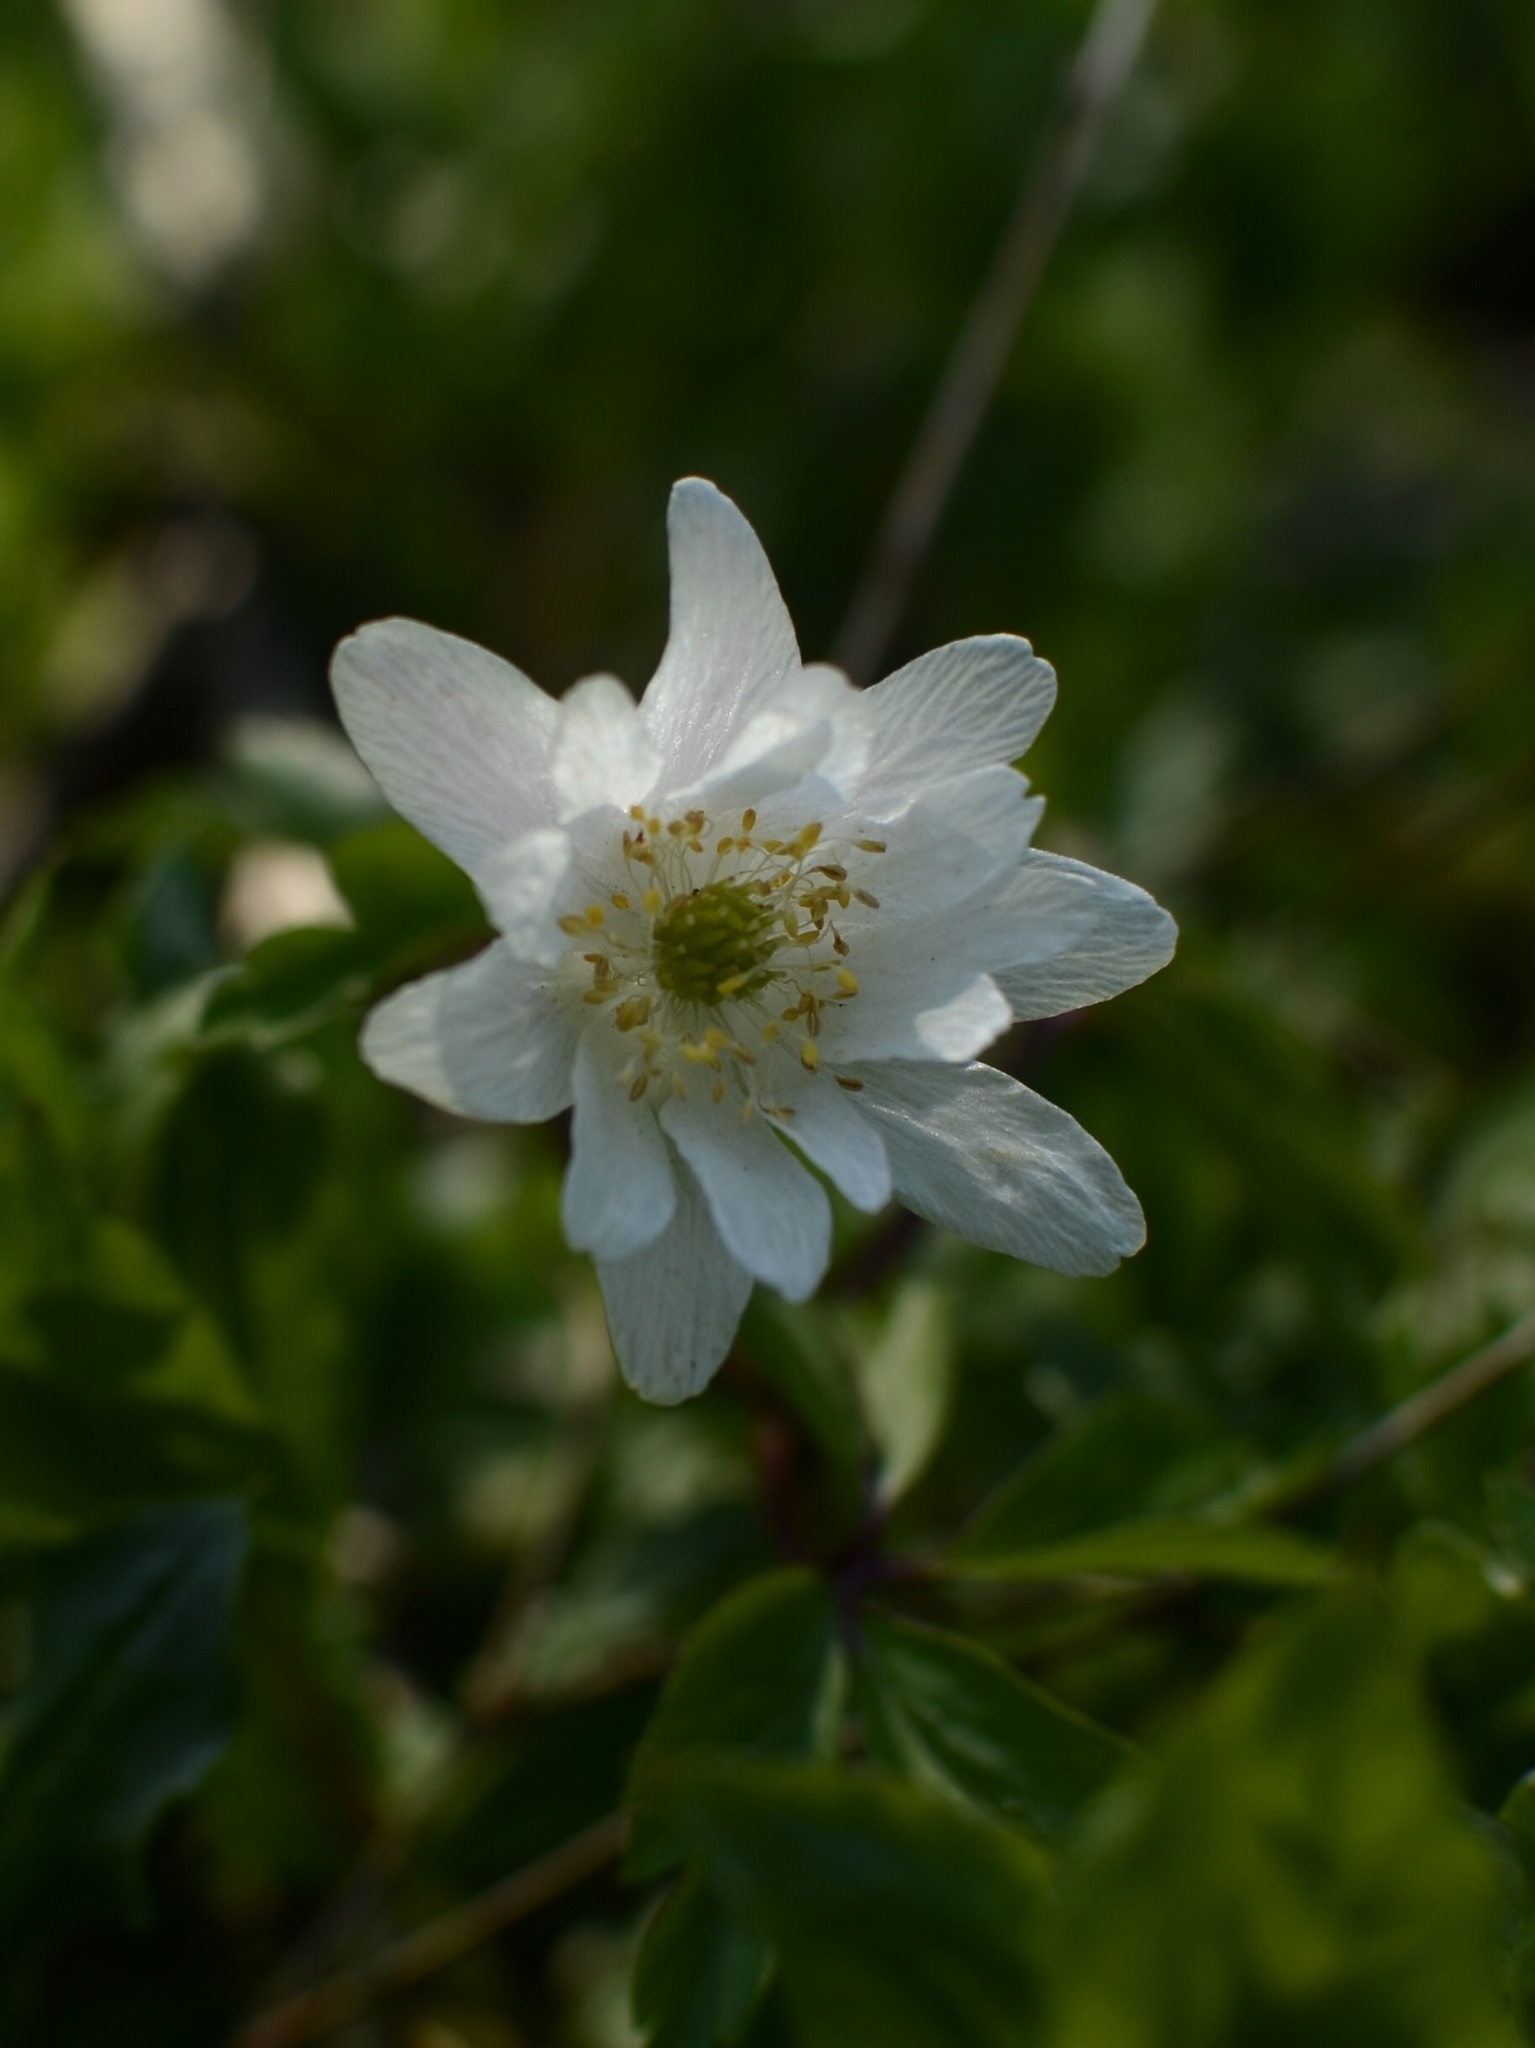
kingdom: Plantae
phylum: Tracheophyta
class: Magnoliopsida
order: Ranunculales
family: Ranunculaceae
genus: Anemone
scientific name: Anemone nemorosa
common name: Wood anemone
